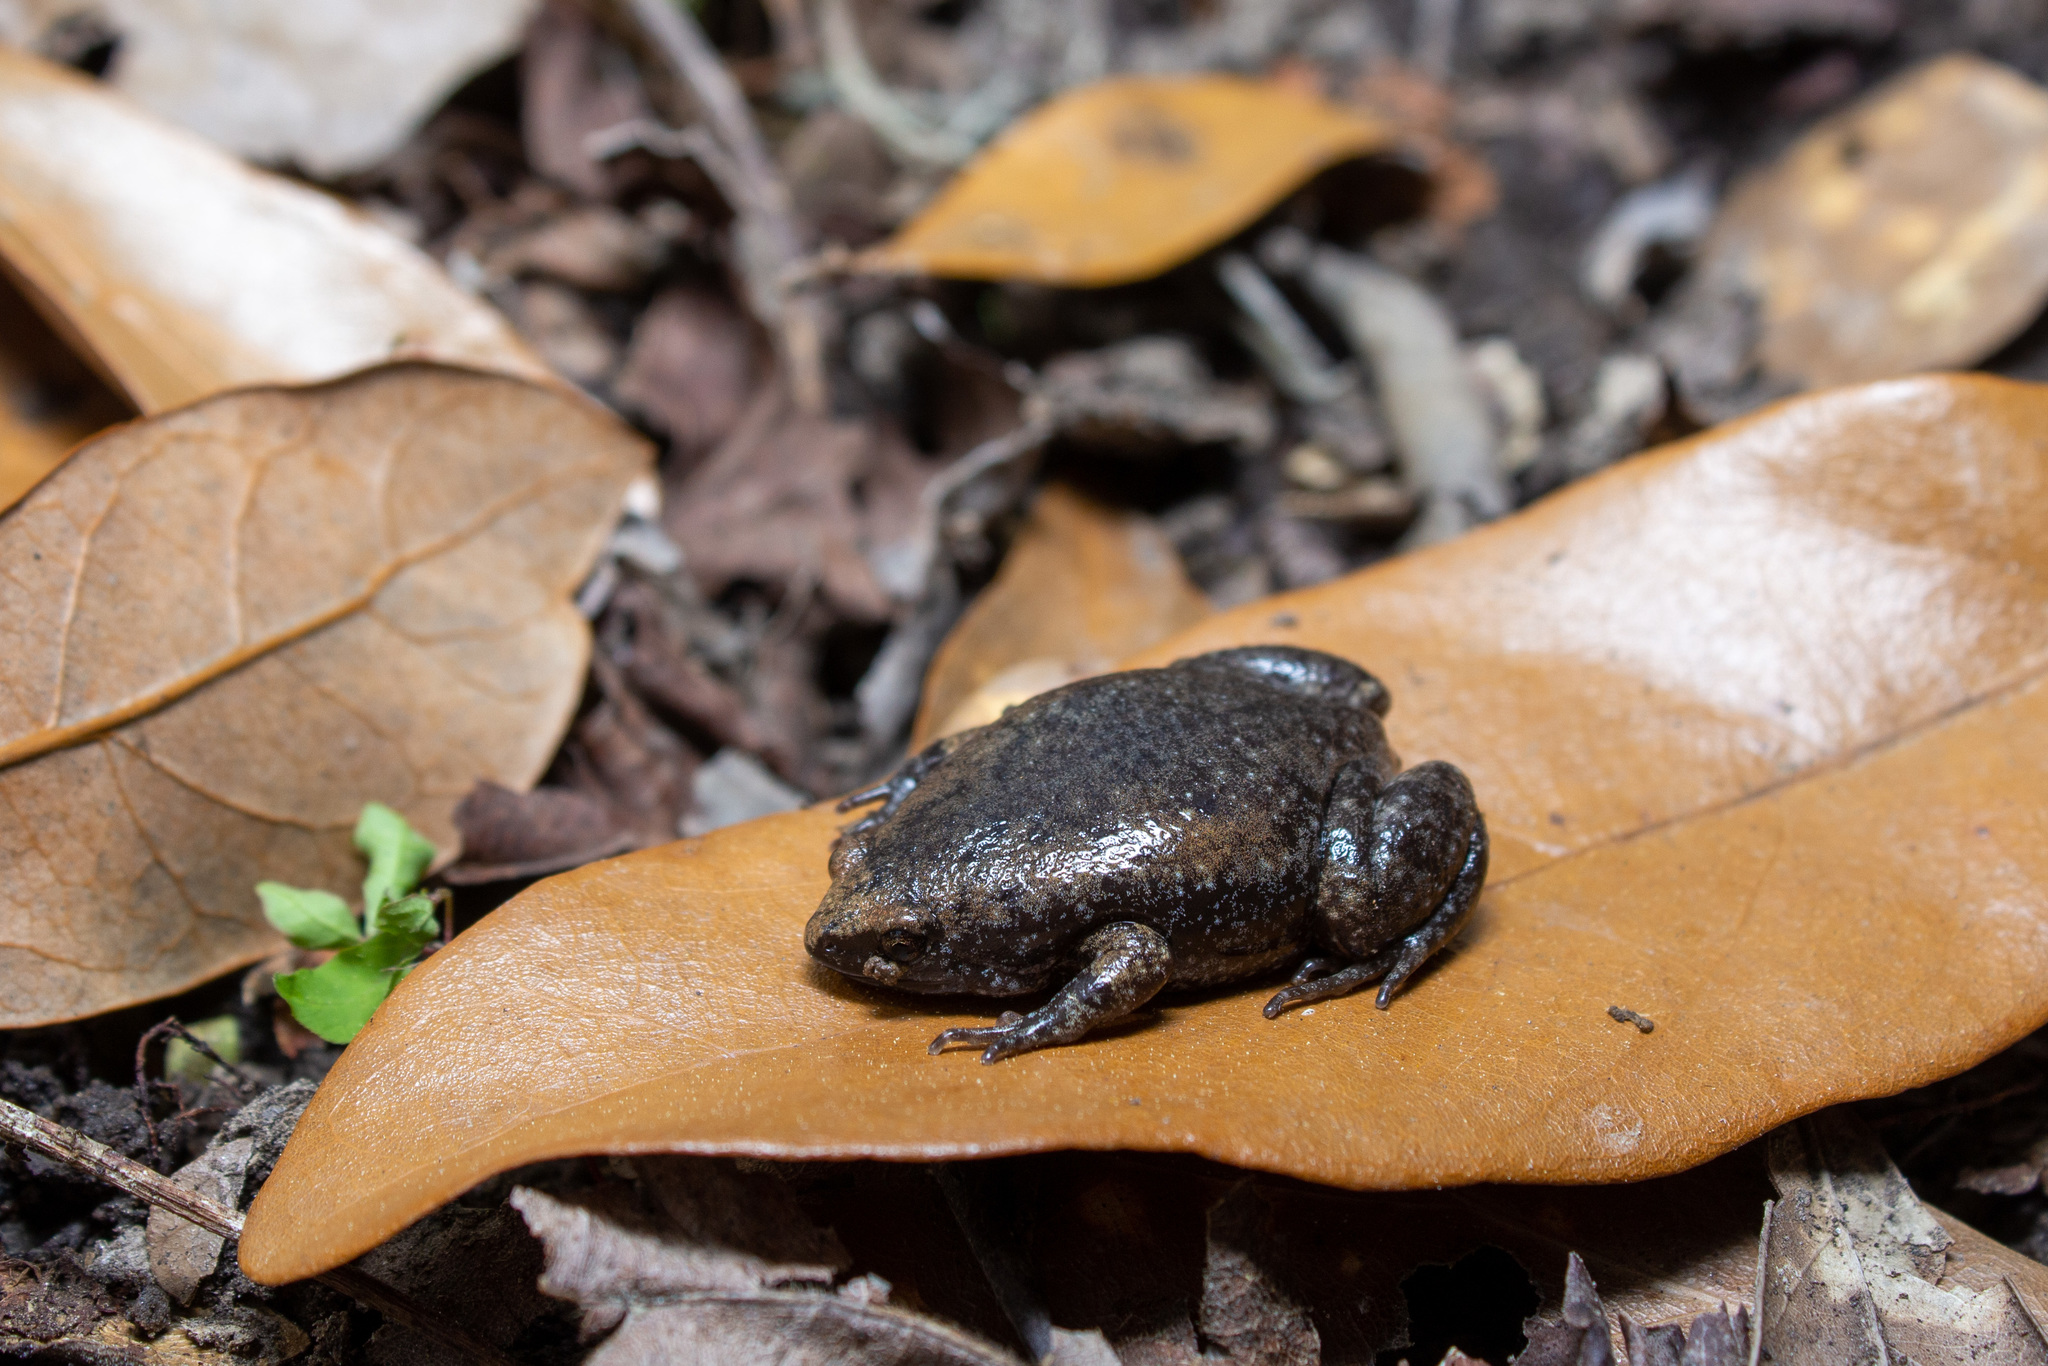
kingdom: Animalia
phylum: Chordata
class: Amphibia
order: Anura
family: Microhylidae
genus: Gastrophryne
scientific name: Gastrophryne carolinensis
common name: Eastern narrowmouth toad
